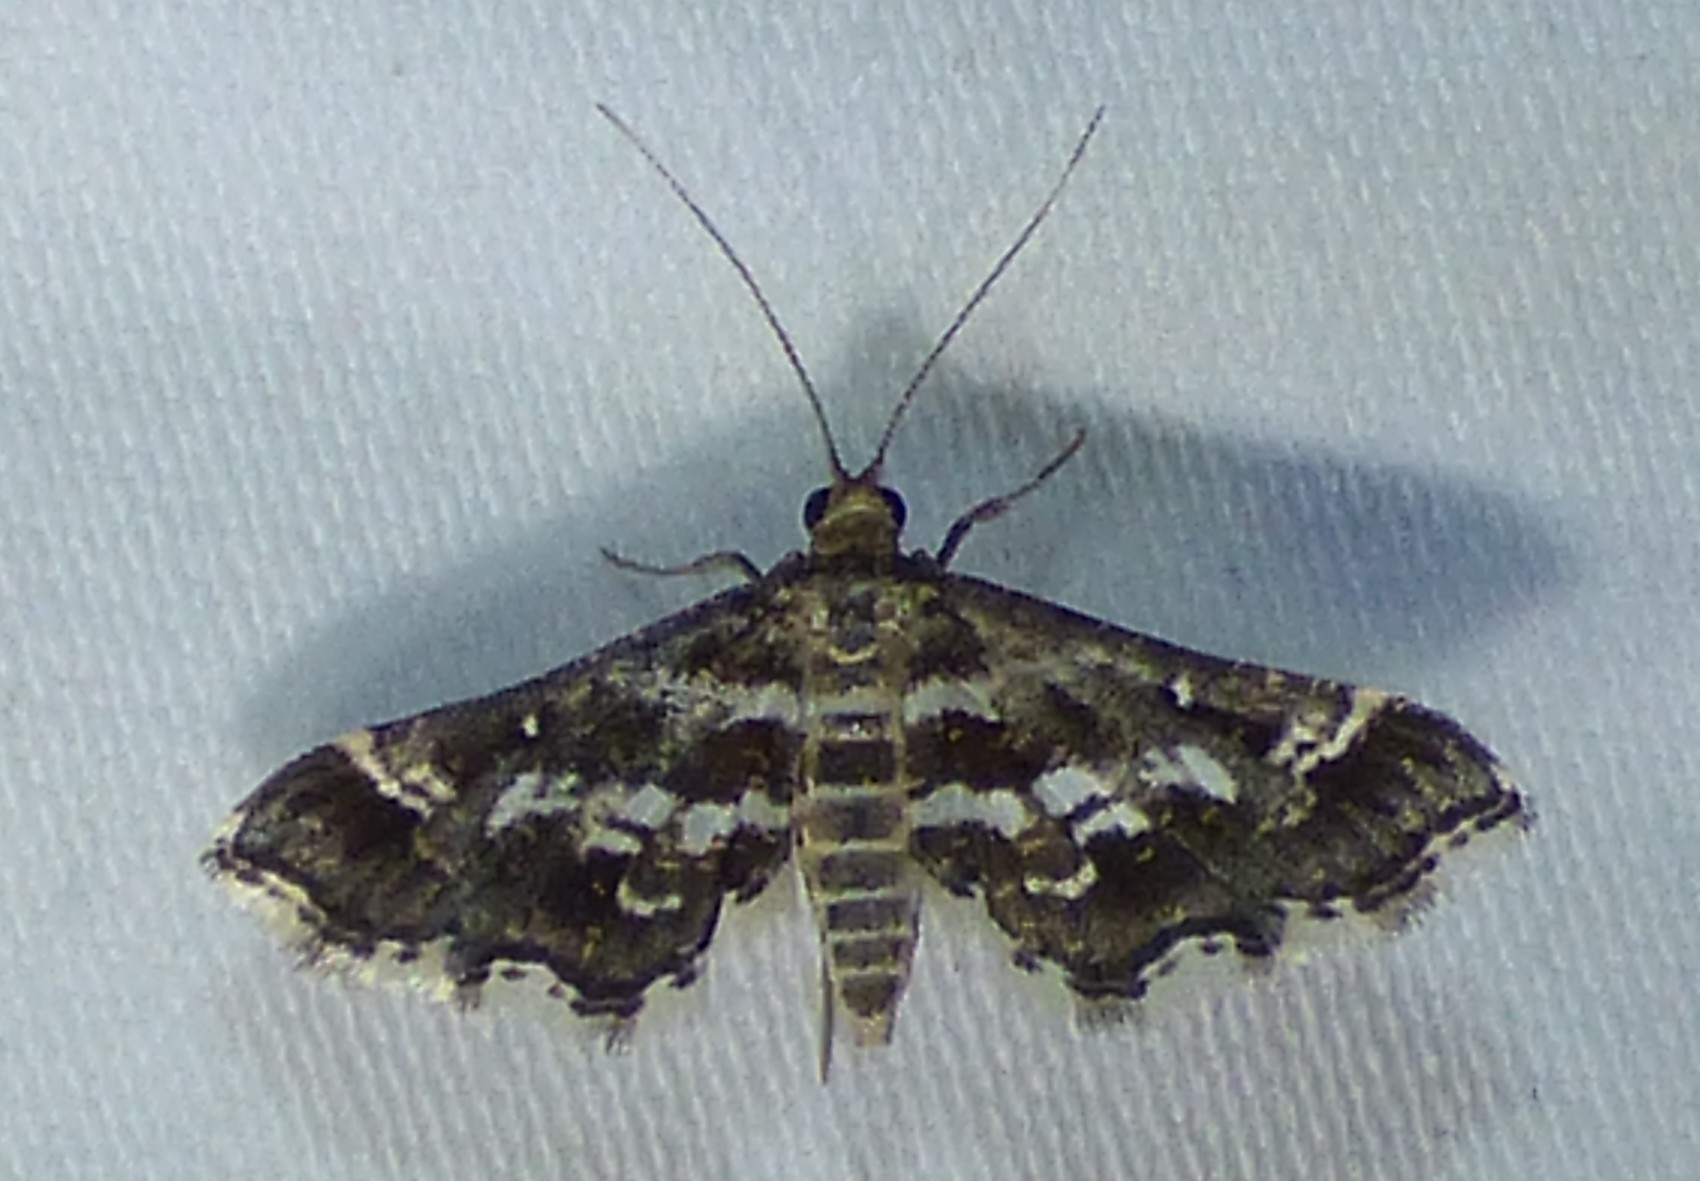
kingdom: Animalia
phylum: Arthropoda
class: Insecta
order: Lepidoptera
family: Crambidae
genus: Diasemiopsis
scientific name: Diasemiopsis ramburialis
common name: Vagrant china-mark
